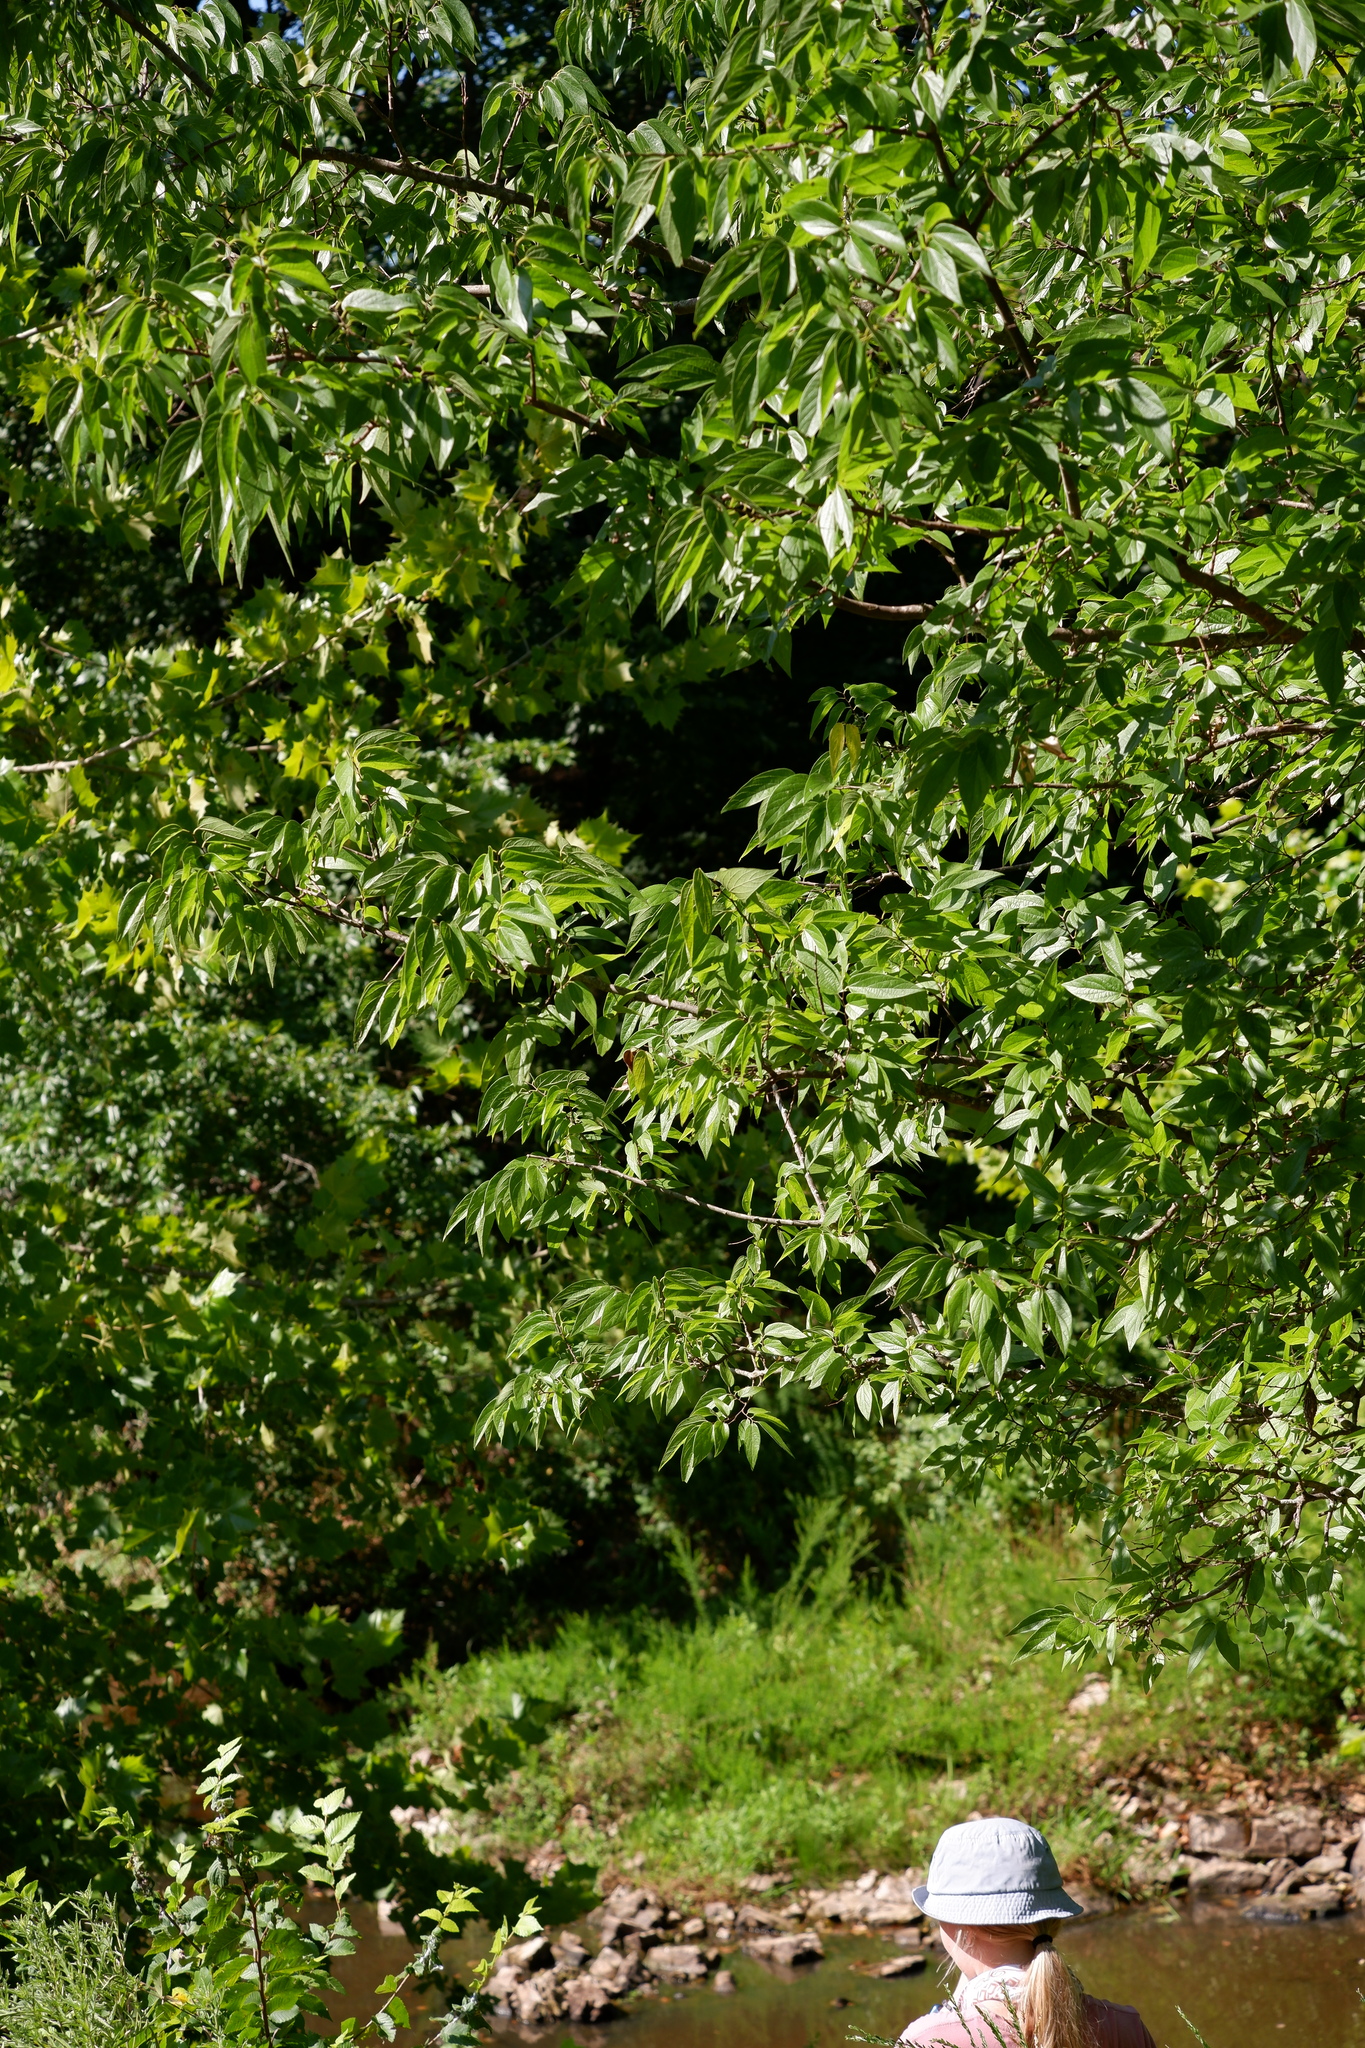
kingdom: Plantae
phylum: Tracheophyta
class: Magnoliopsida
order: Rosales
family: Cannabaceae
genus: Celtis
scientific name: Celtis laevigata
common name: Sugarberry
